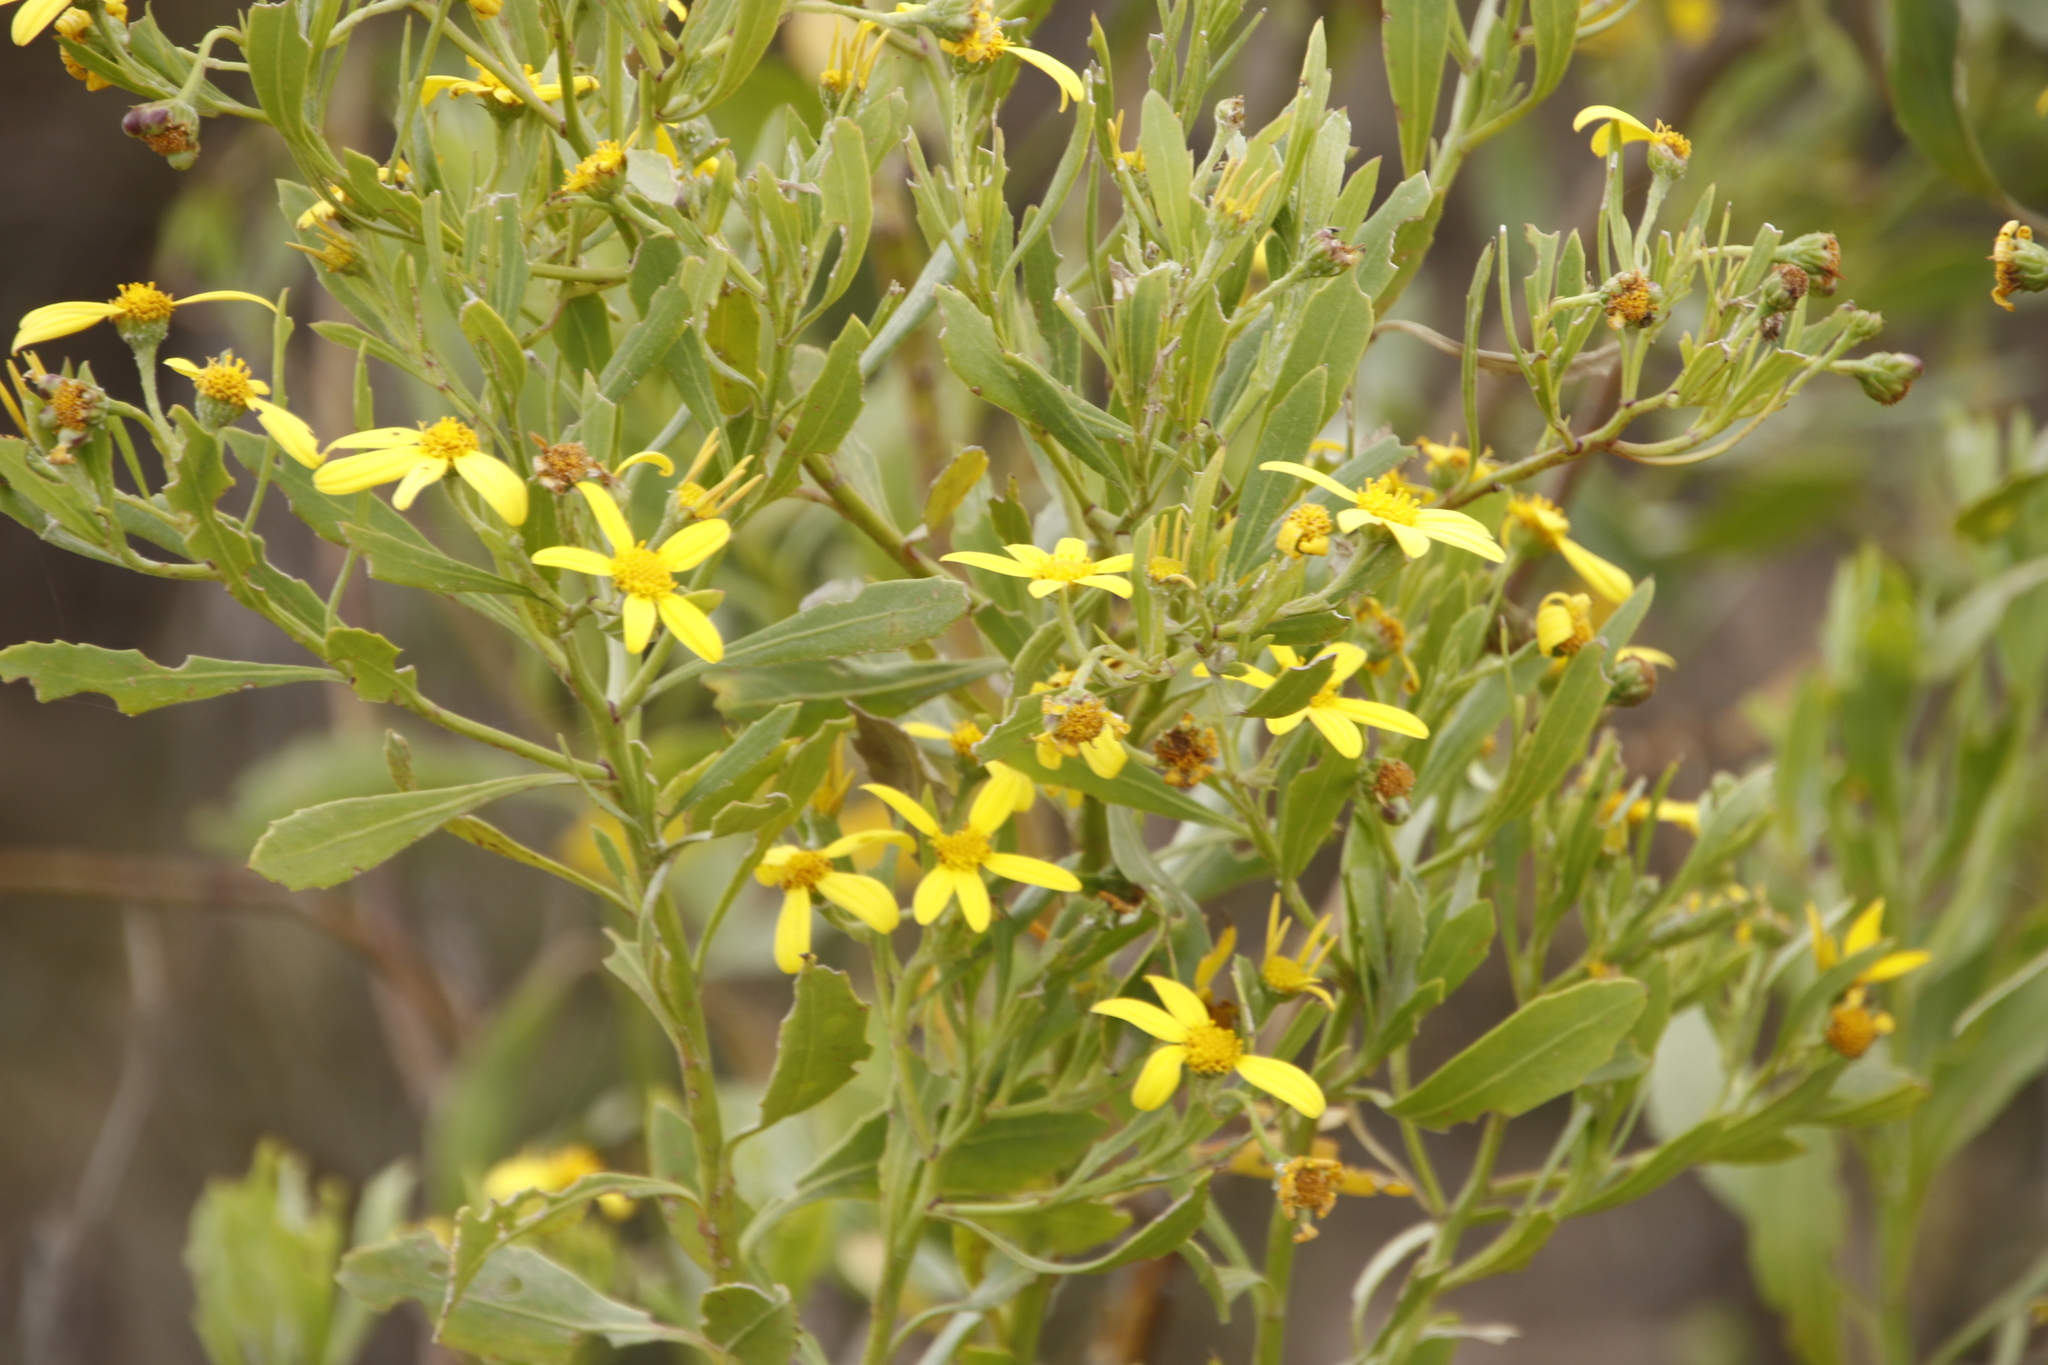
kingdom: Plantae
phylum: Tracheophyta
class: Magnoliopsida
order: Asterales
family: Asteraceae
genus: Osteospermum
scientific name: Osteospermum moniliferum
